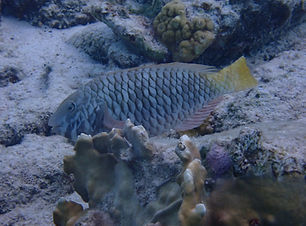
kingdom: Animalia
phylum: Chordata
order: Perciformes
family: Scaridae
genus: Sparisoma
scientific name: Sparisoma rubripinne
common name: Redfin parrotfish
